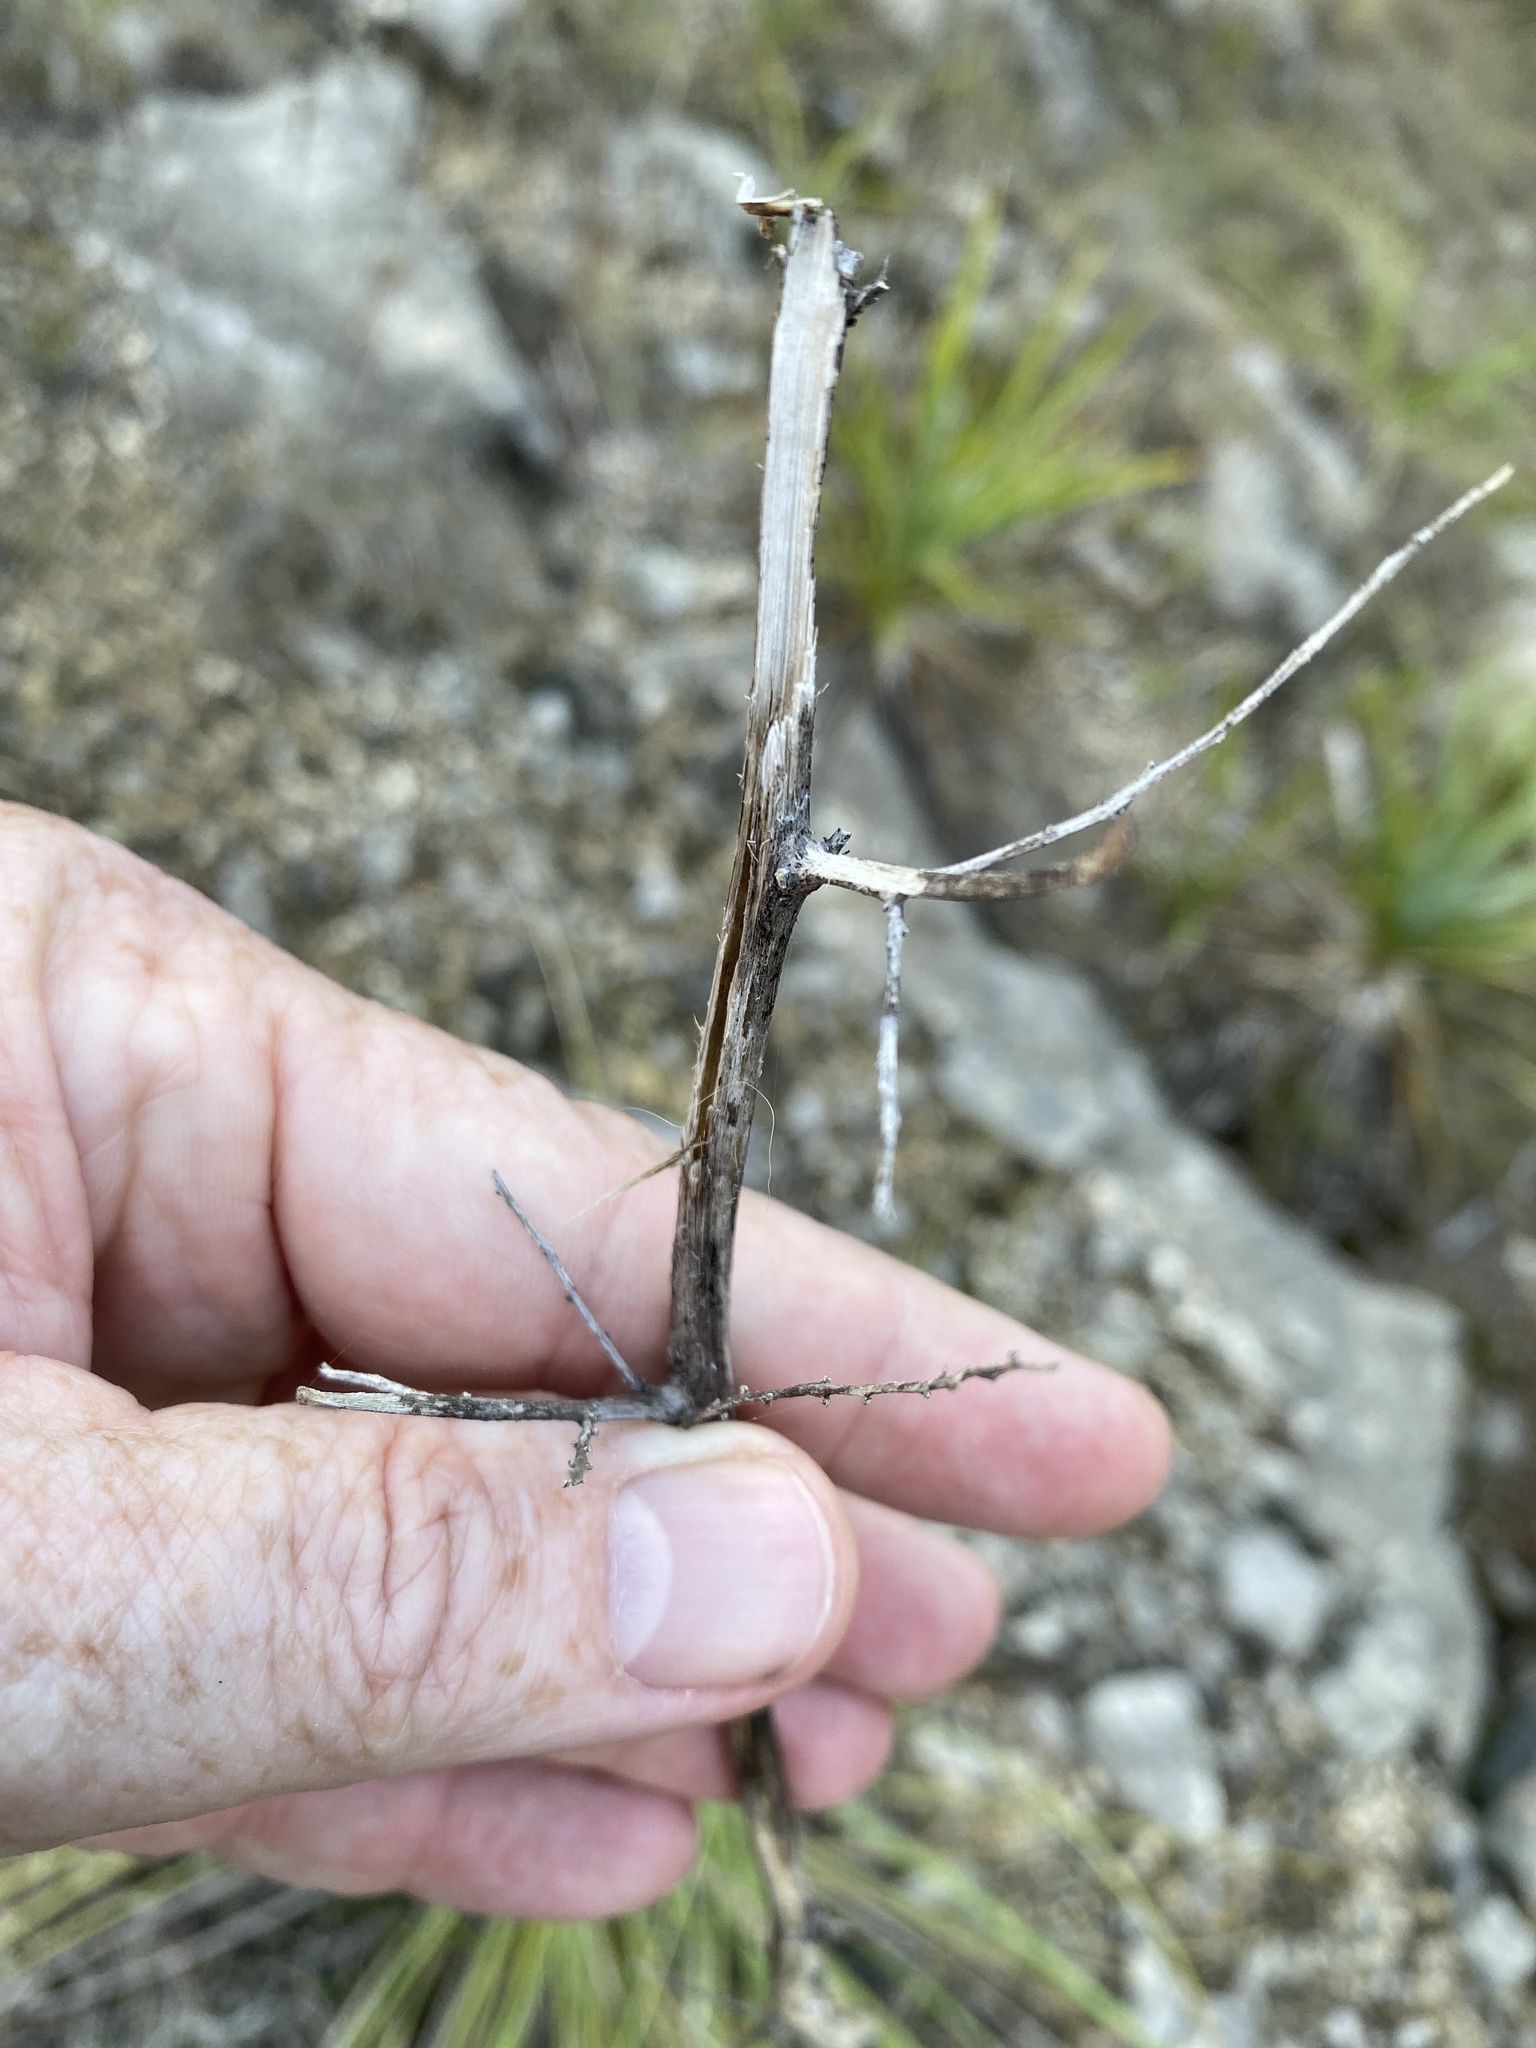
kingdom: Plantae
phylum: Tracheophyta
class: Liliopsida
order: Asparagales
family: Asparagaceae
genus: Nolina
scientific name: Nolina lindheimeriana
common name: Lindheimer's bear-grass
